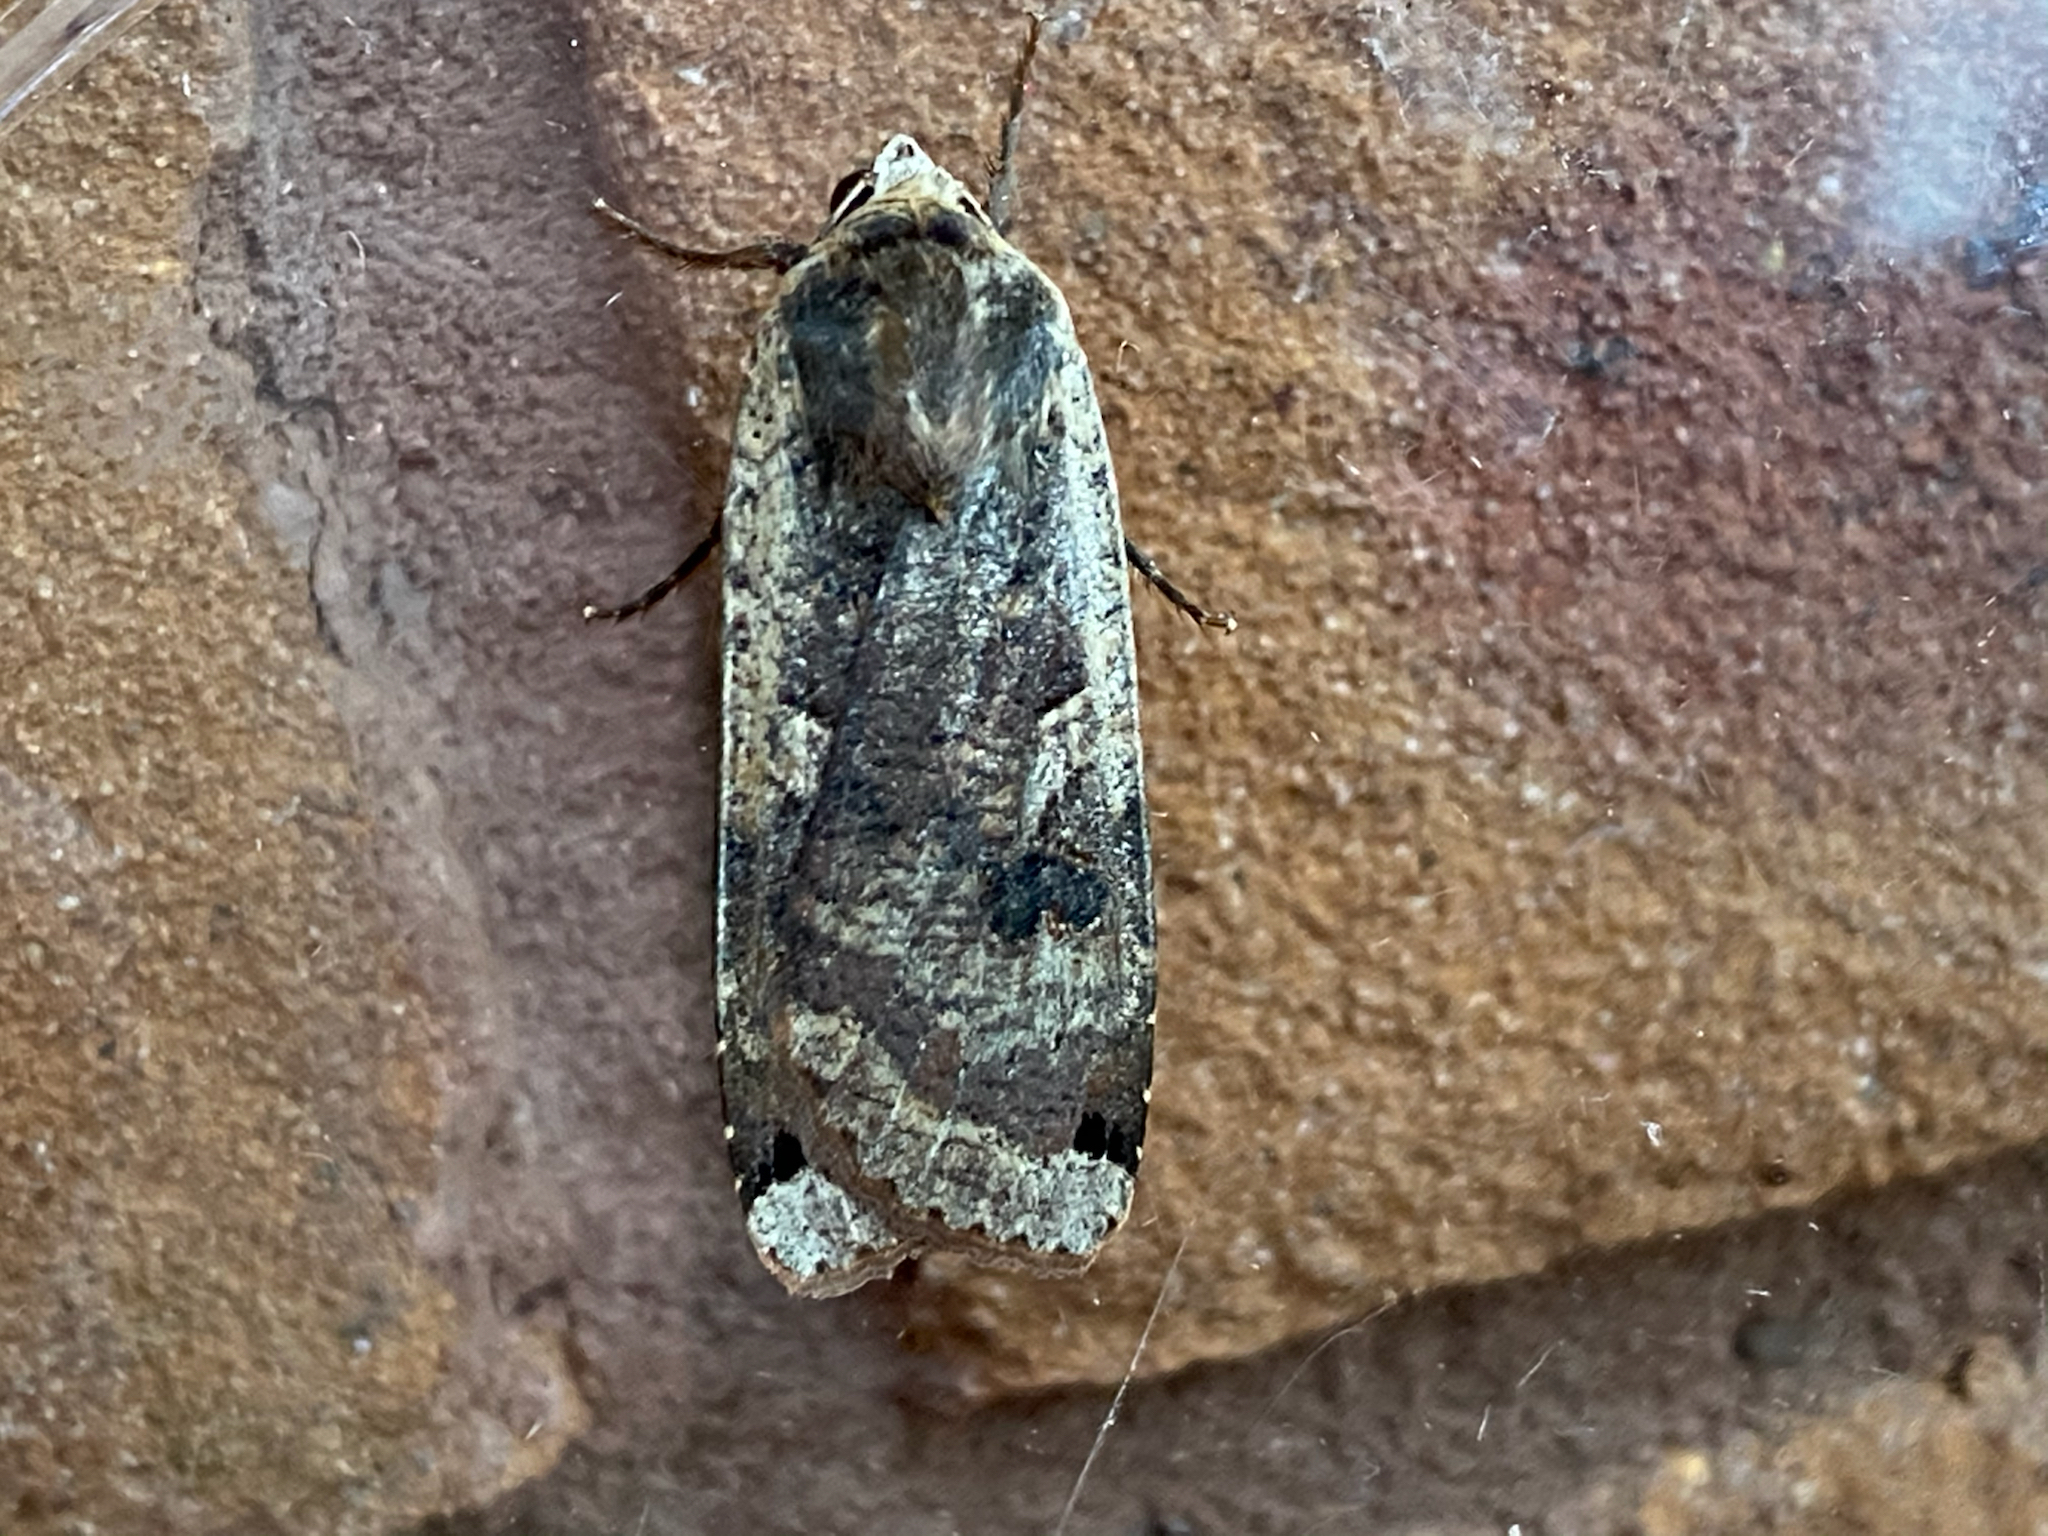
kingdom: Animalia
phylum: Arthropoda
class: Insecta
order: Lepidoptera
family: Noctuidae
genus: Noctua
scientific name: Noctua pronuba
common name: Large yellow underwing
